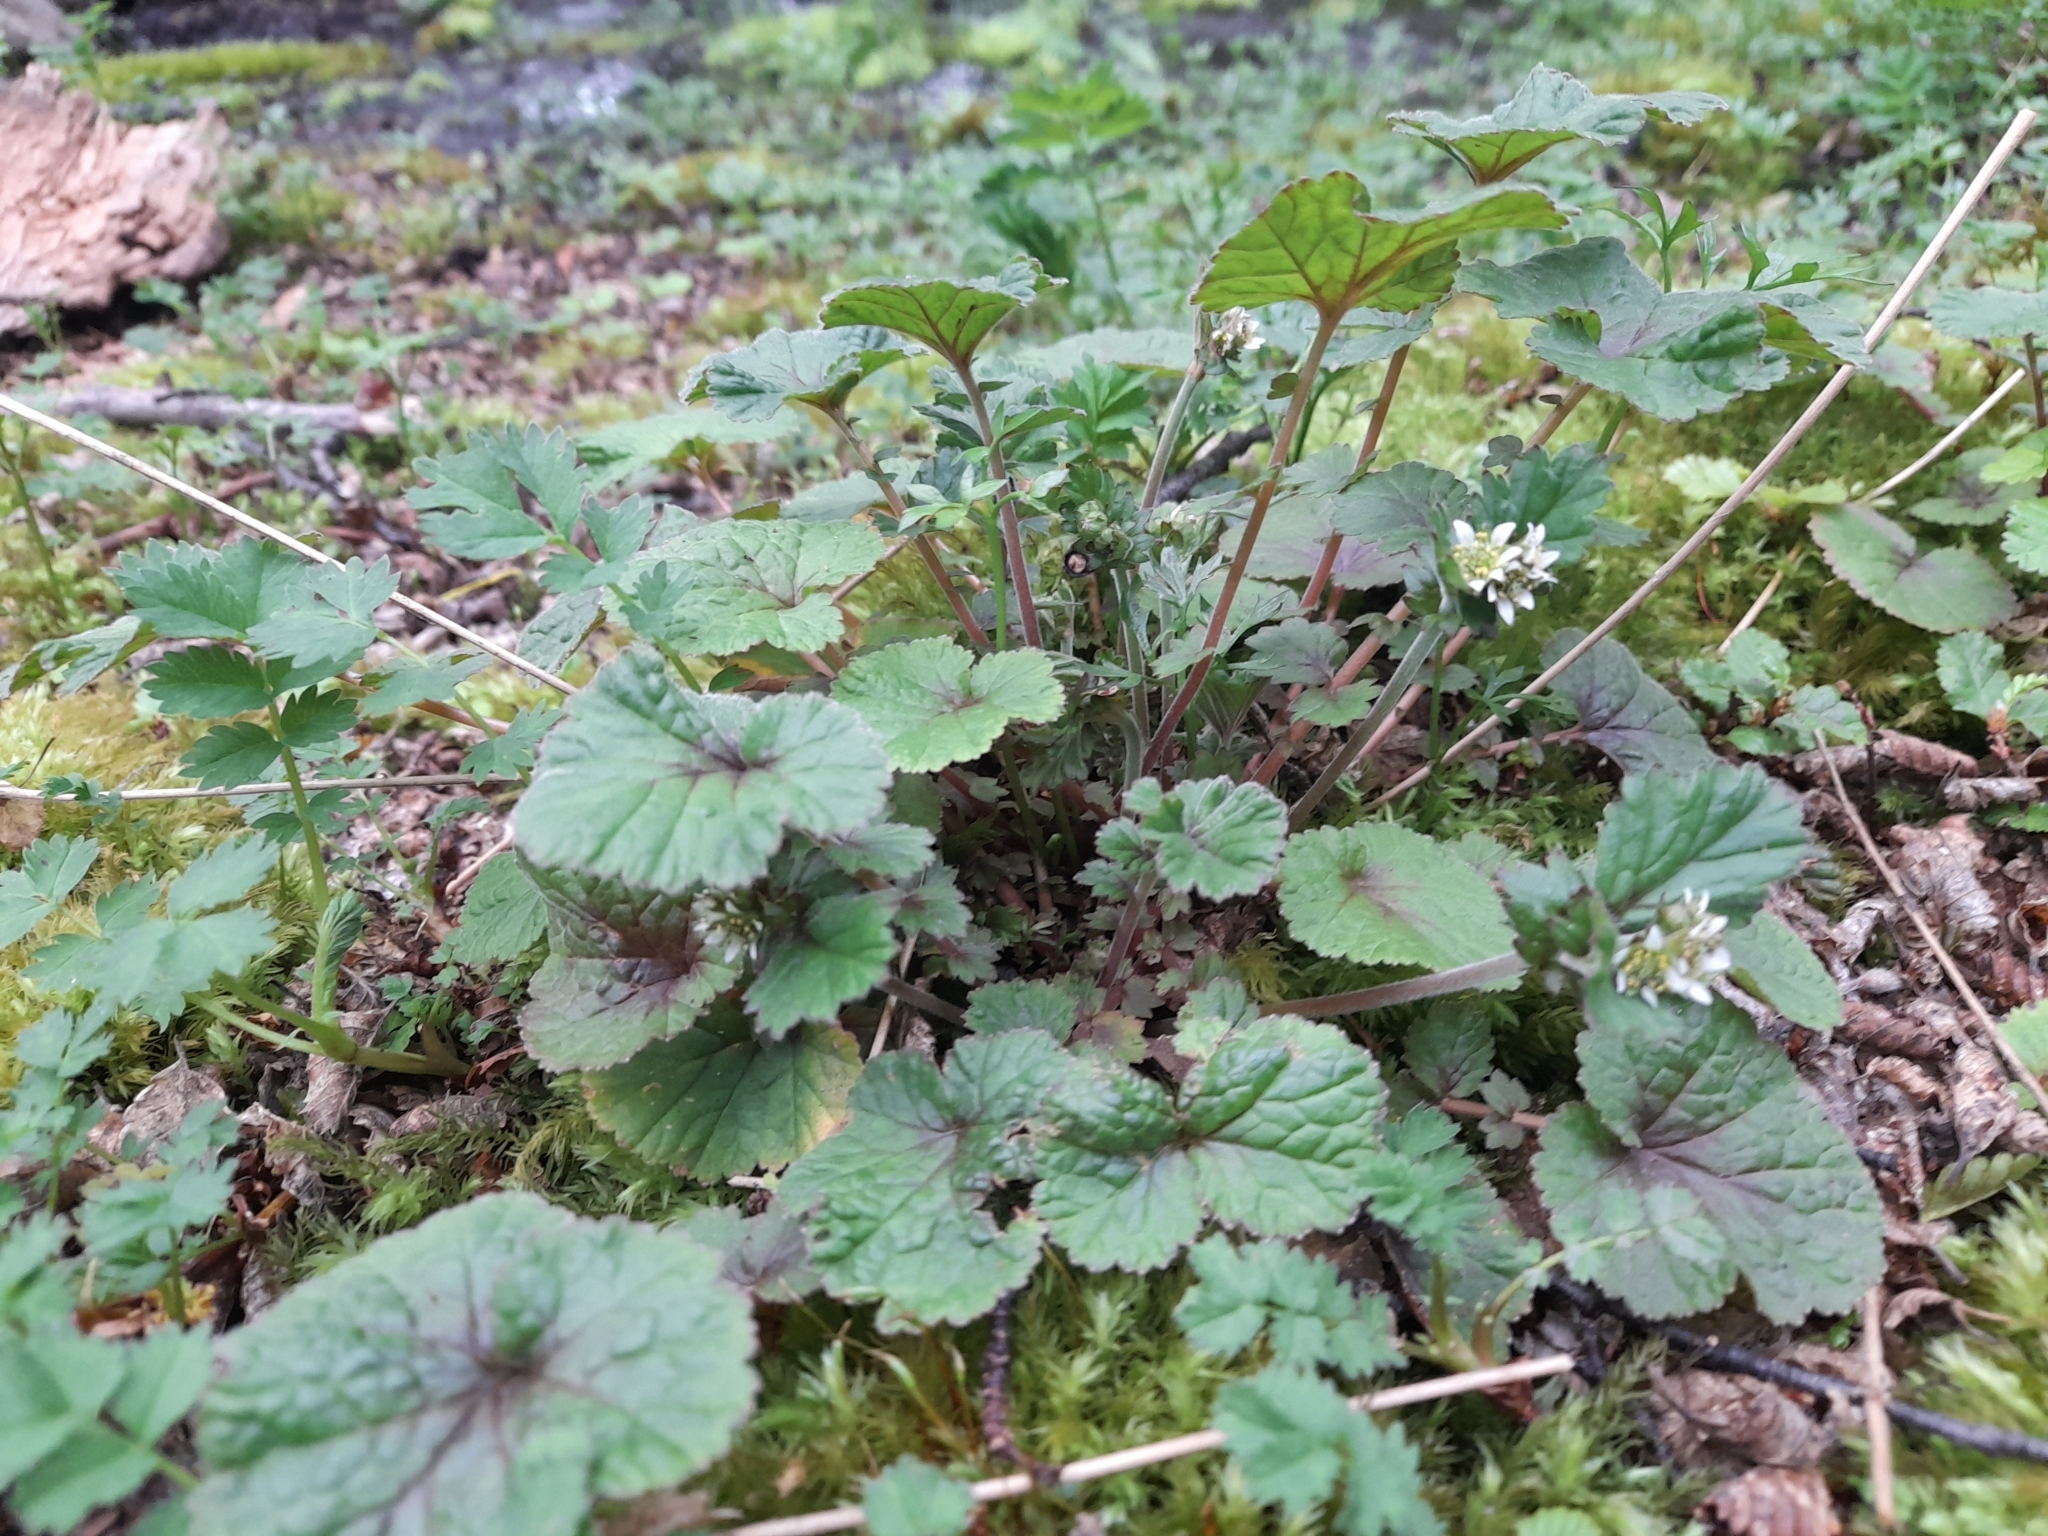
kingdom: Plantae
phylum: Tracheophyta
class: Magnoliopsida
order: Rosales
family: Rosaceae
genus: Geum
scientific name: Geum involucratum
